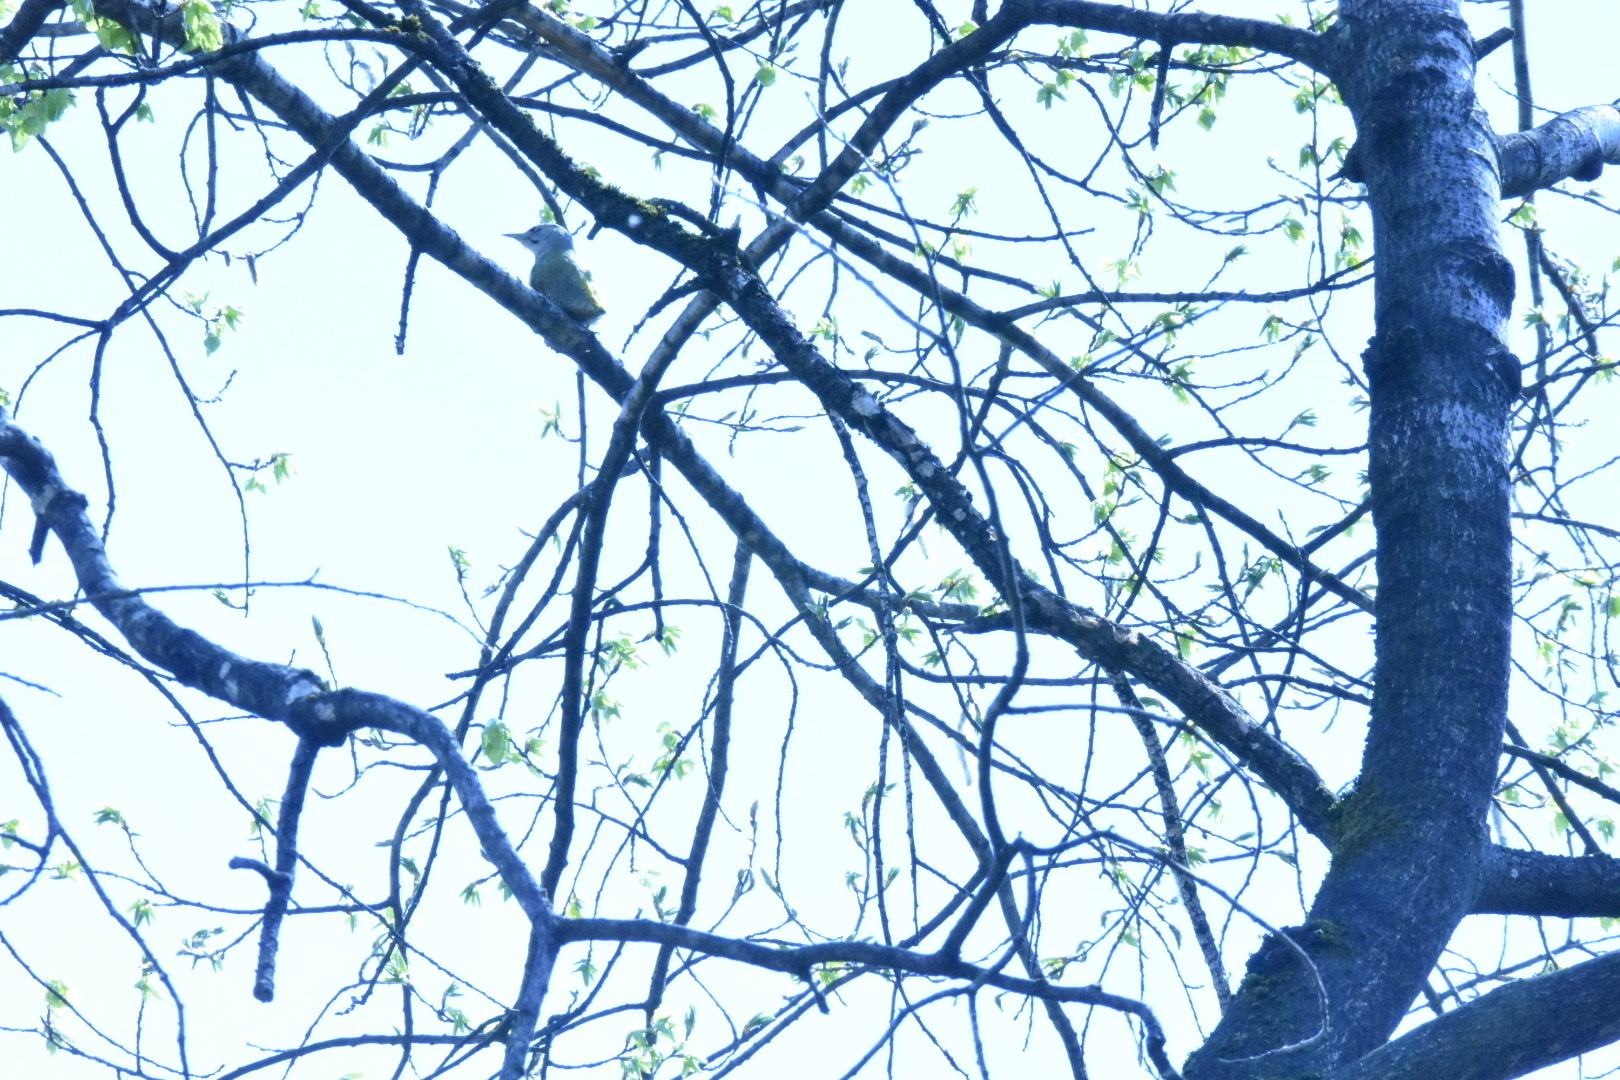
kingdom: Animalia
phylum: Chordata
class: Aves
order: Piciformes
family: Picidae
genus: Picus
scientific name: Picus canus
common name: Grey-headed woodpecker
